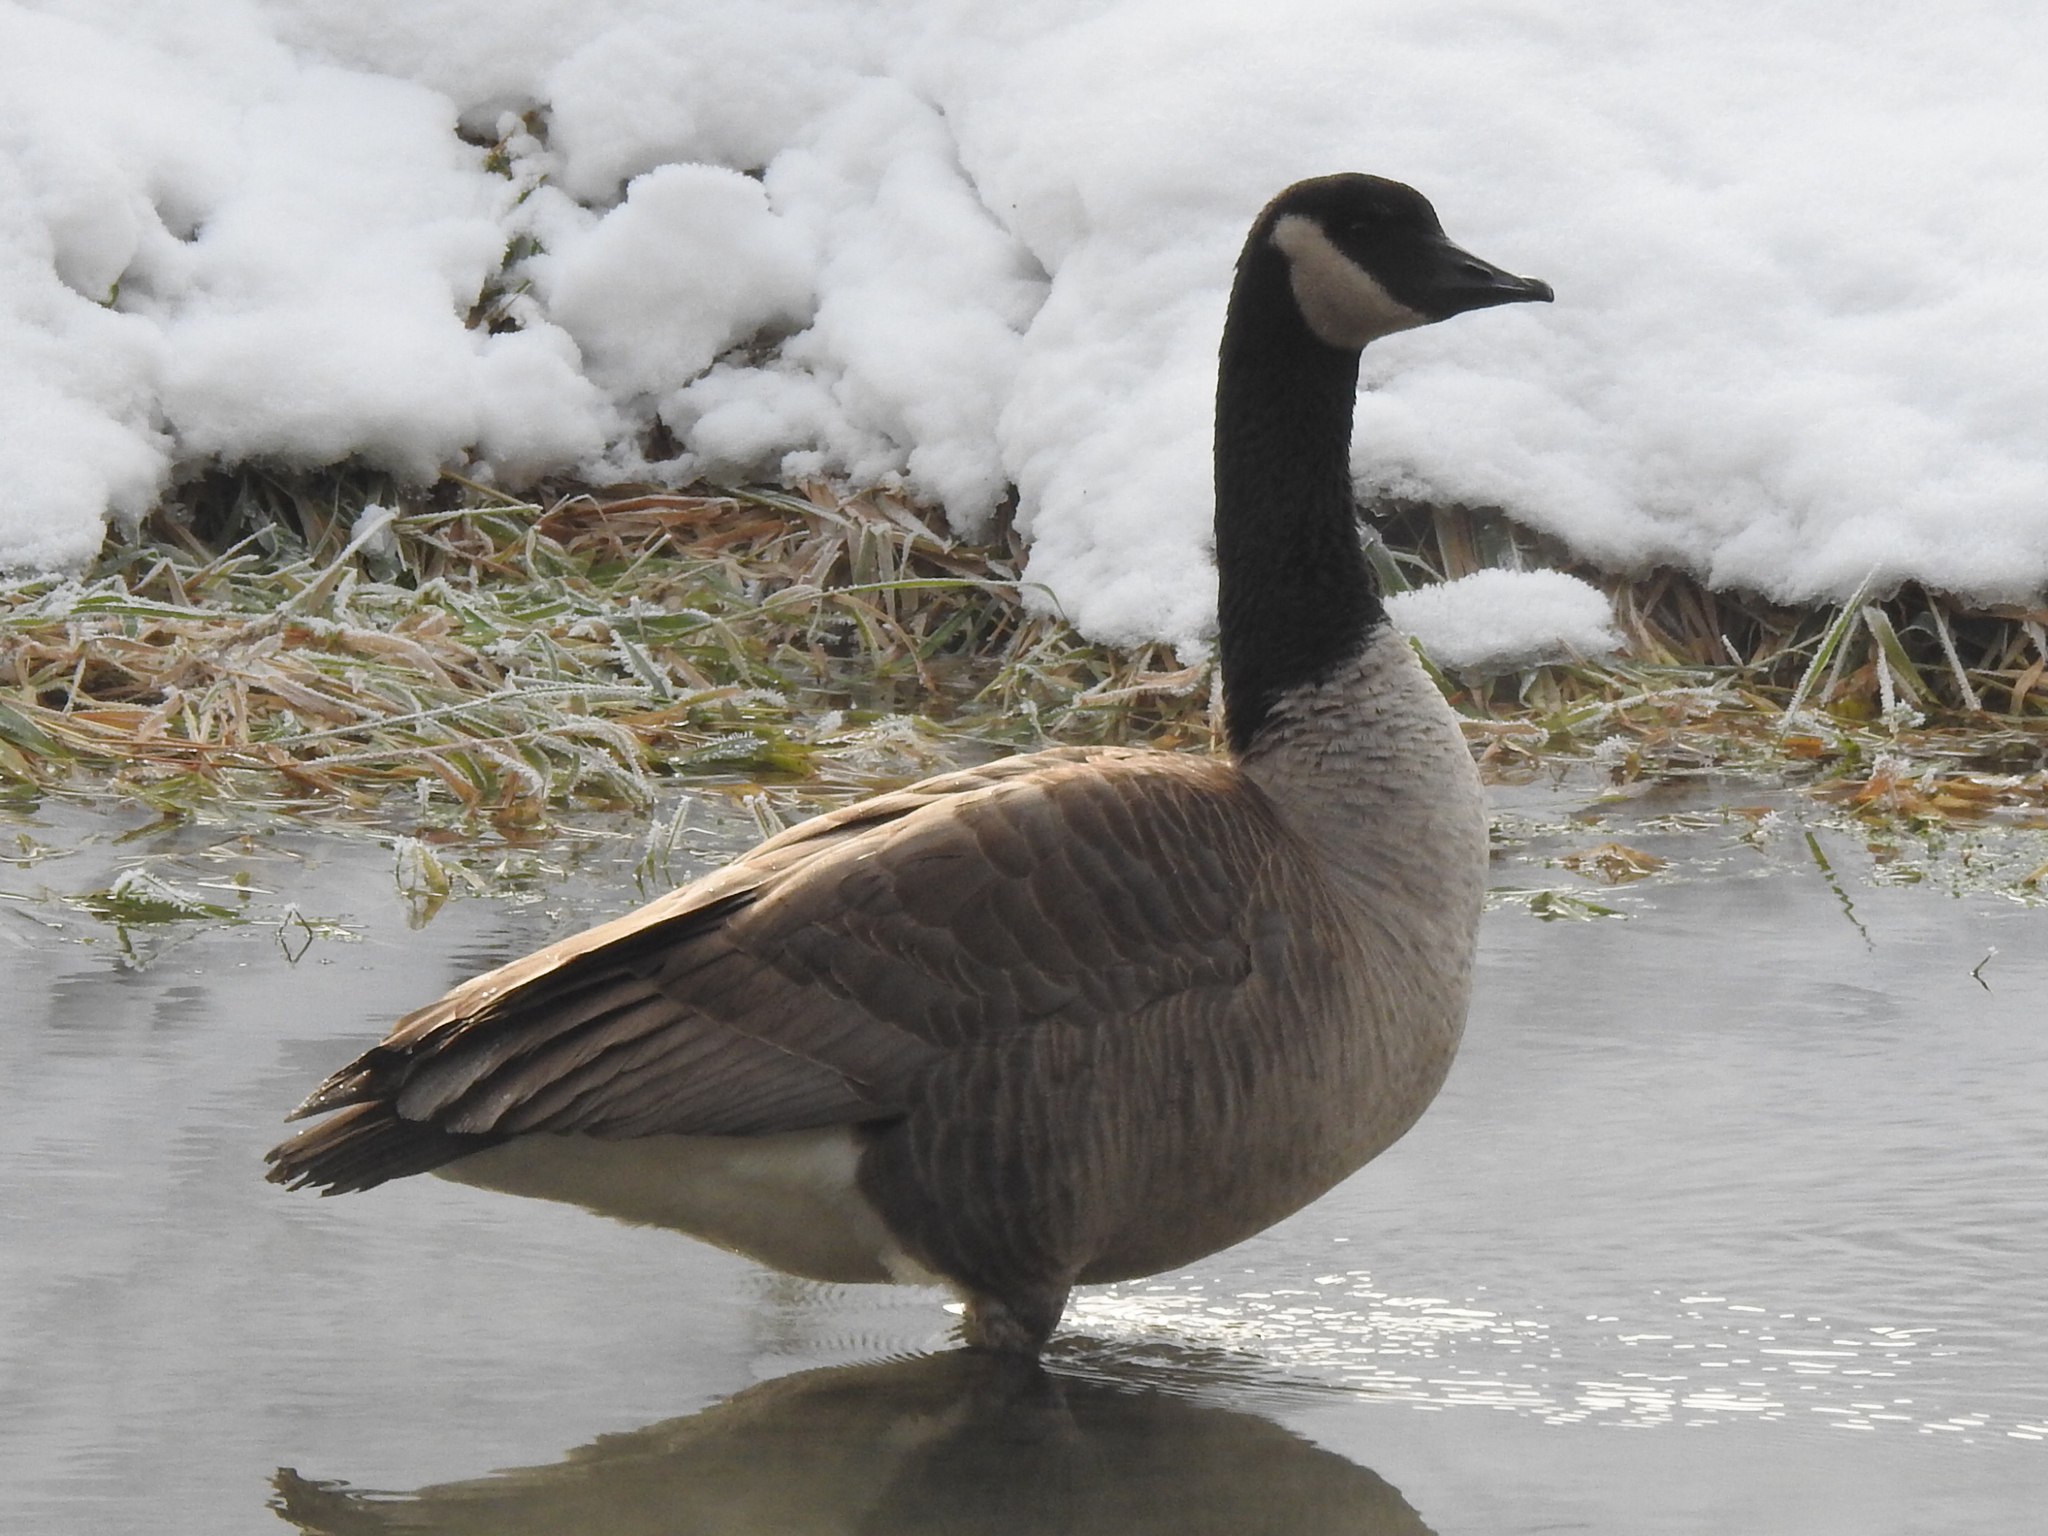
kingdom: Animalia
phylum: Chordata
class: Aves
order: Anseriformes
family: Anatidae
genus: Branta
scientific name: Branta canadensis
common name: Canada goose
